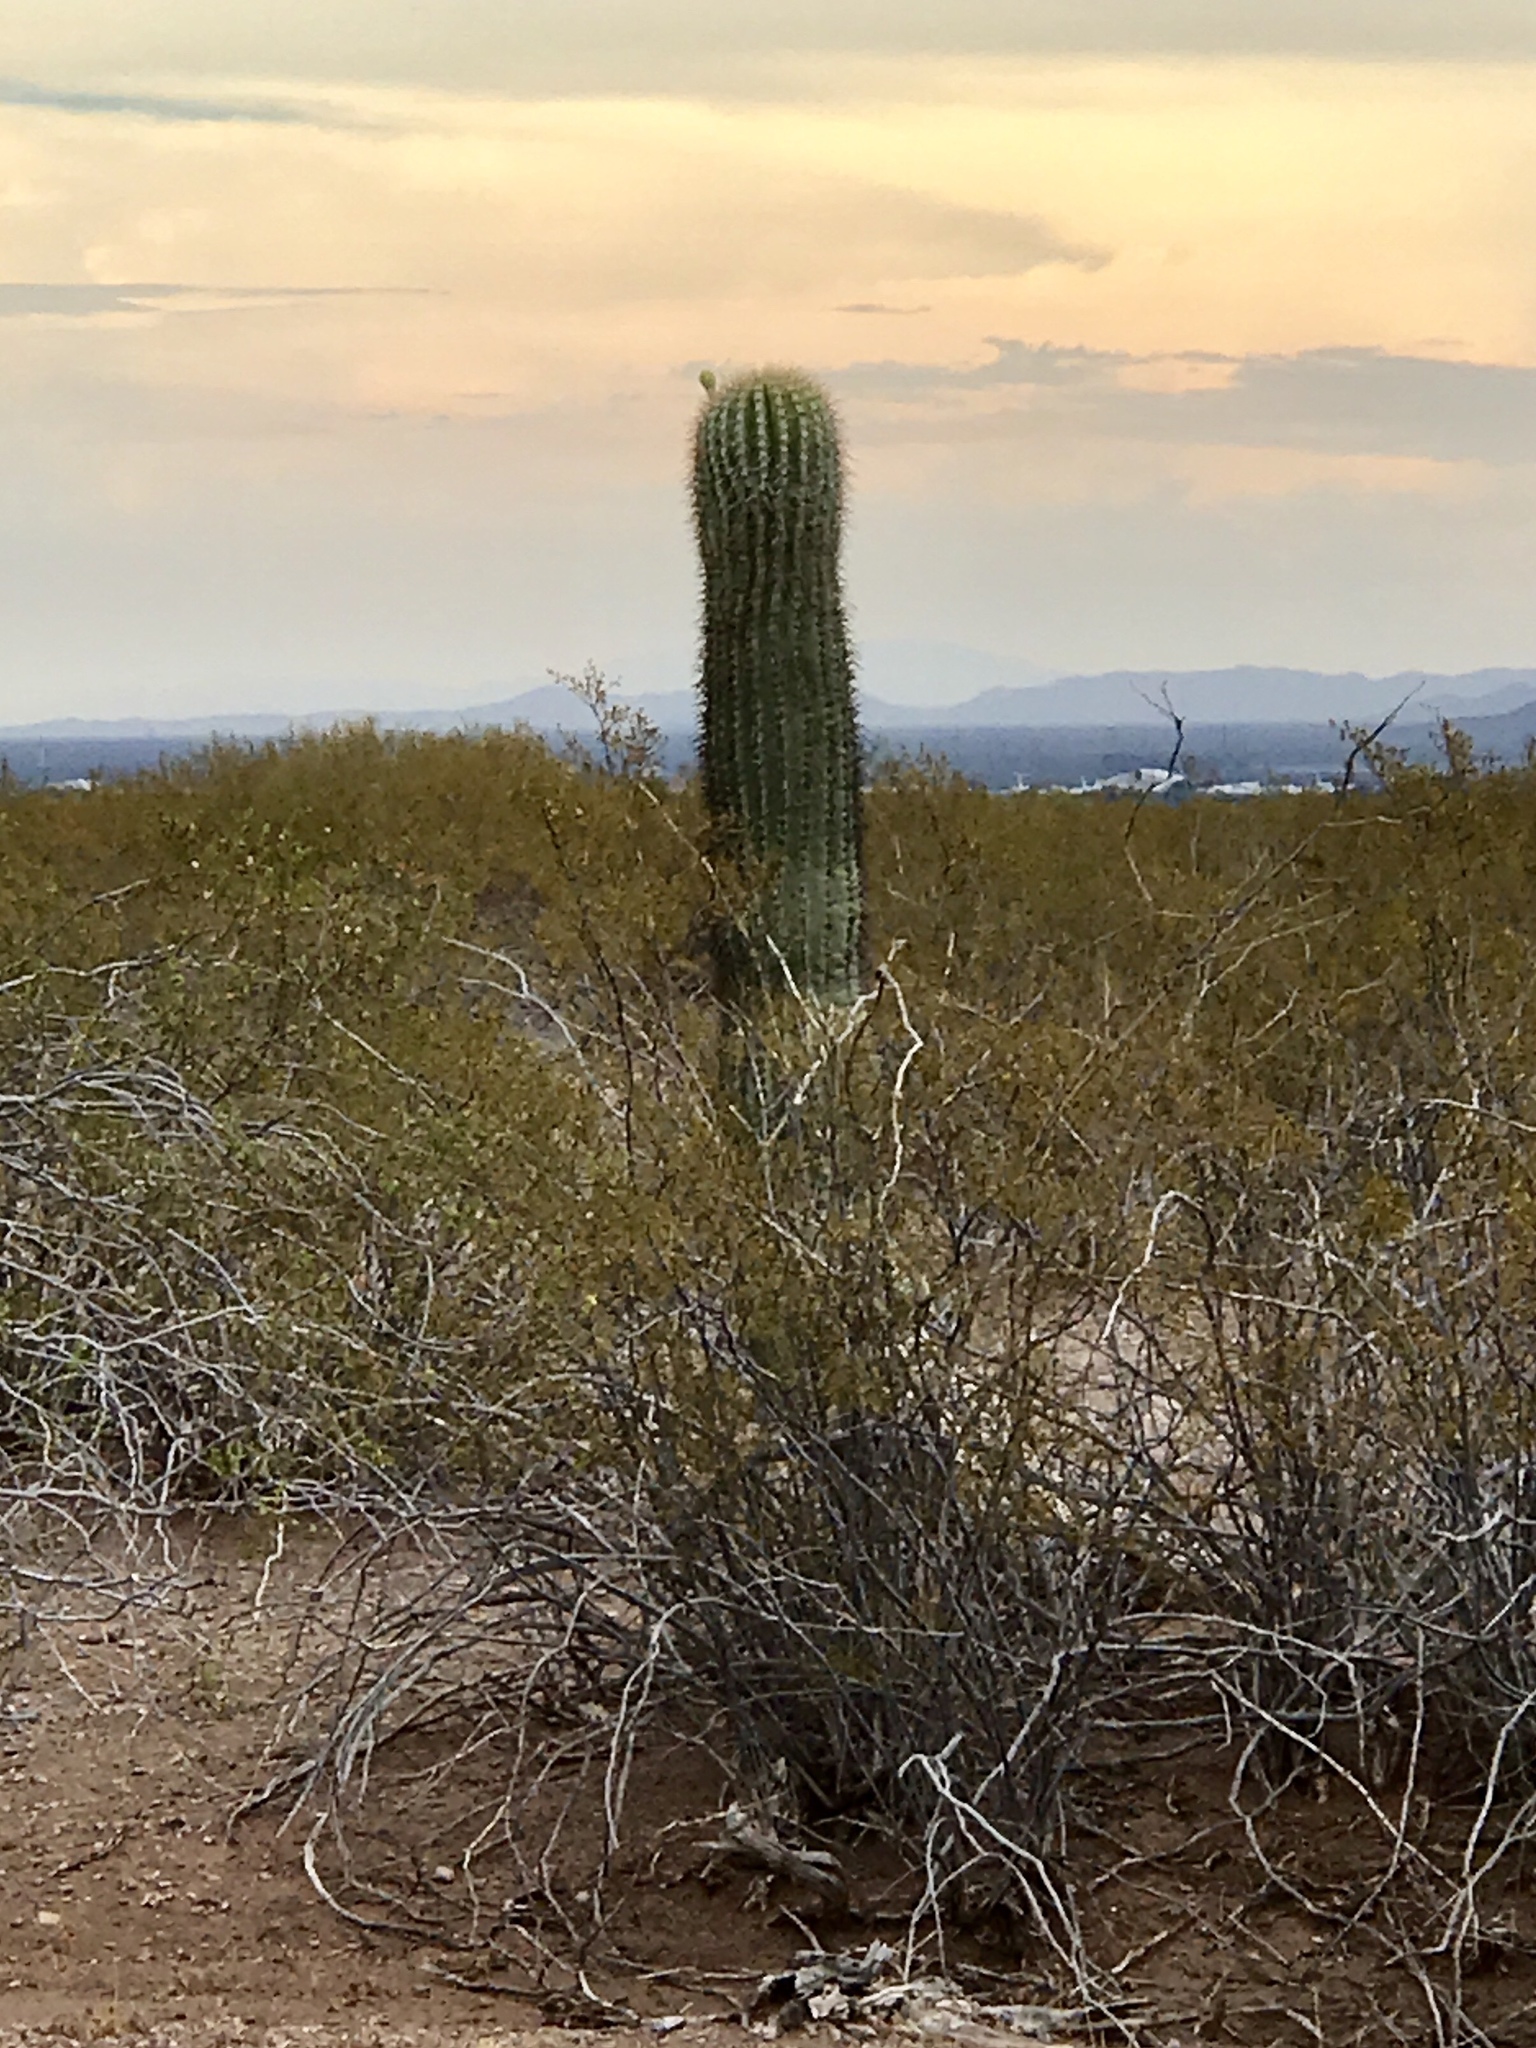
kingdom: Plantae
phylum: Tracheophyta
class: Magnoliopsida
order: Caryophyllales
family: Cactaceae
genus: Carnegiea
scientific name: Carnegiea gigantea
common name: Saguaro
